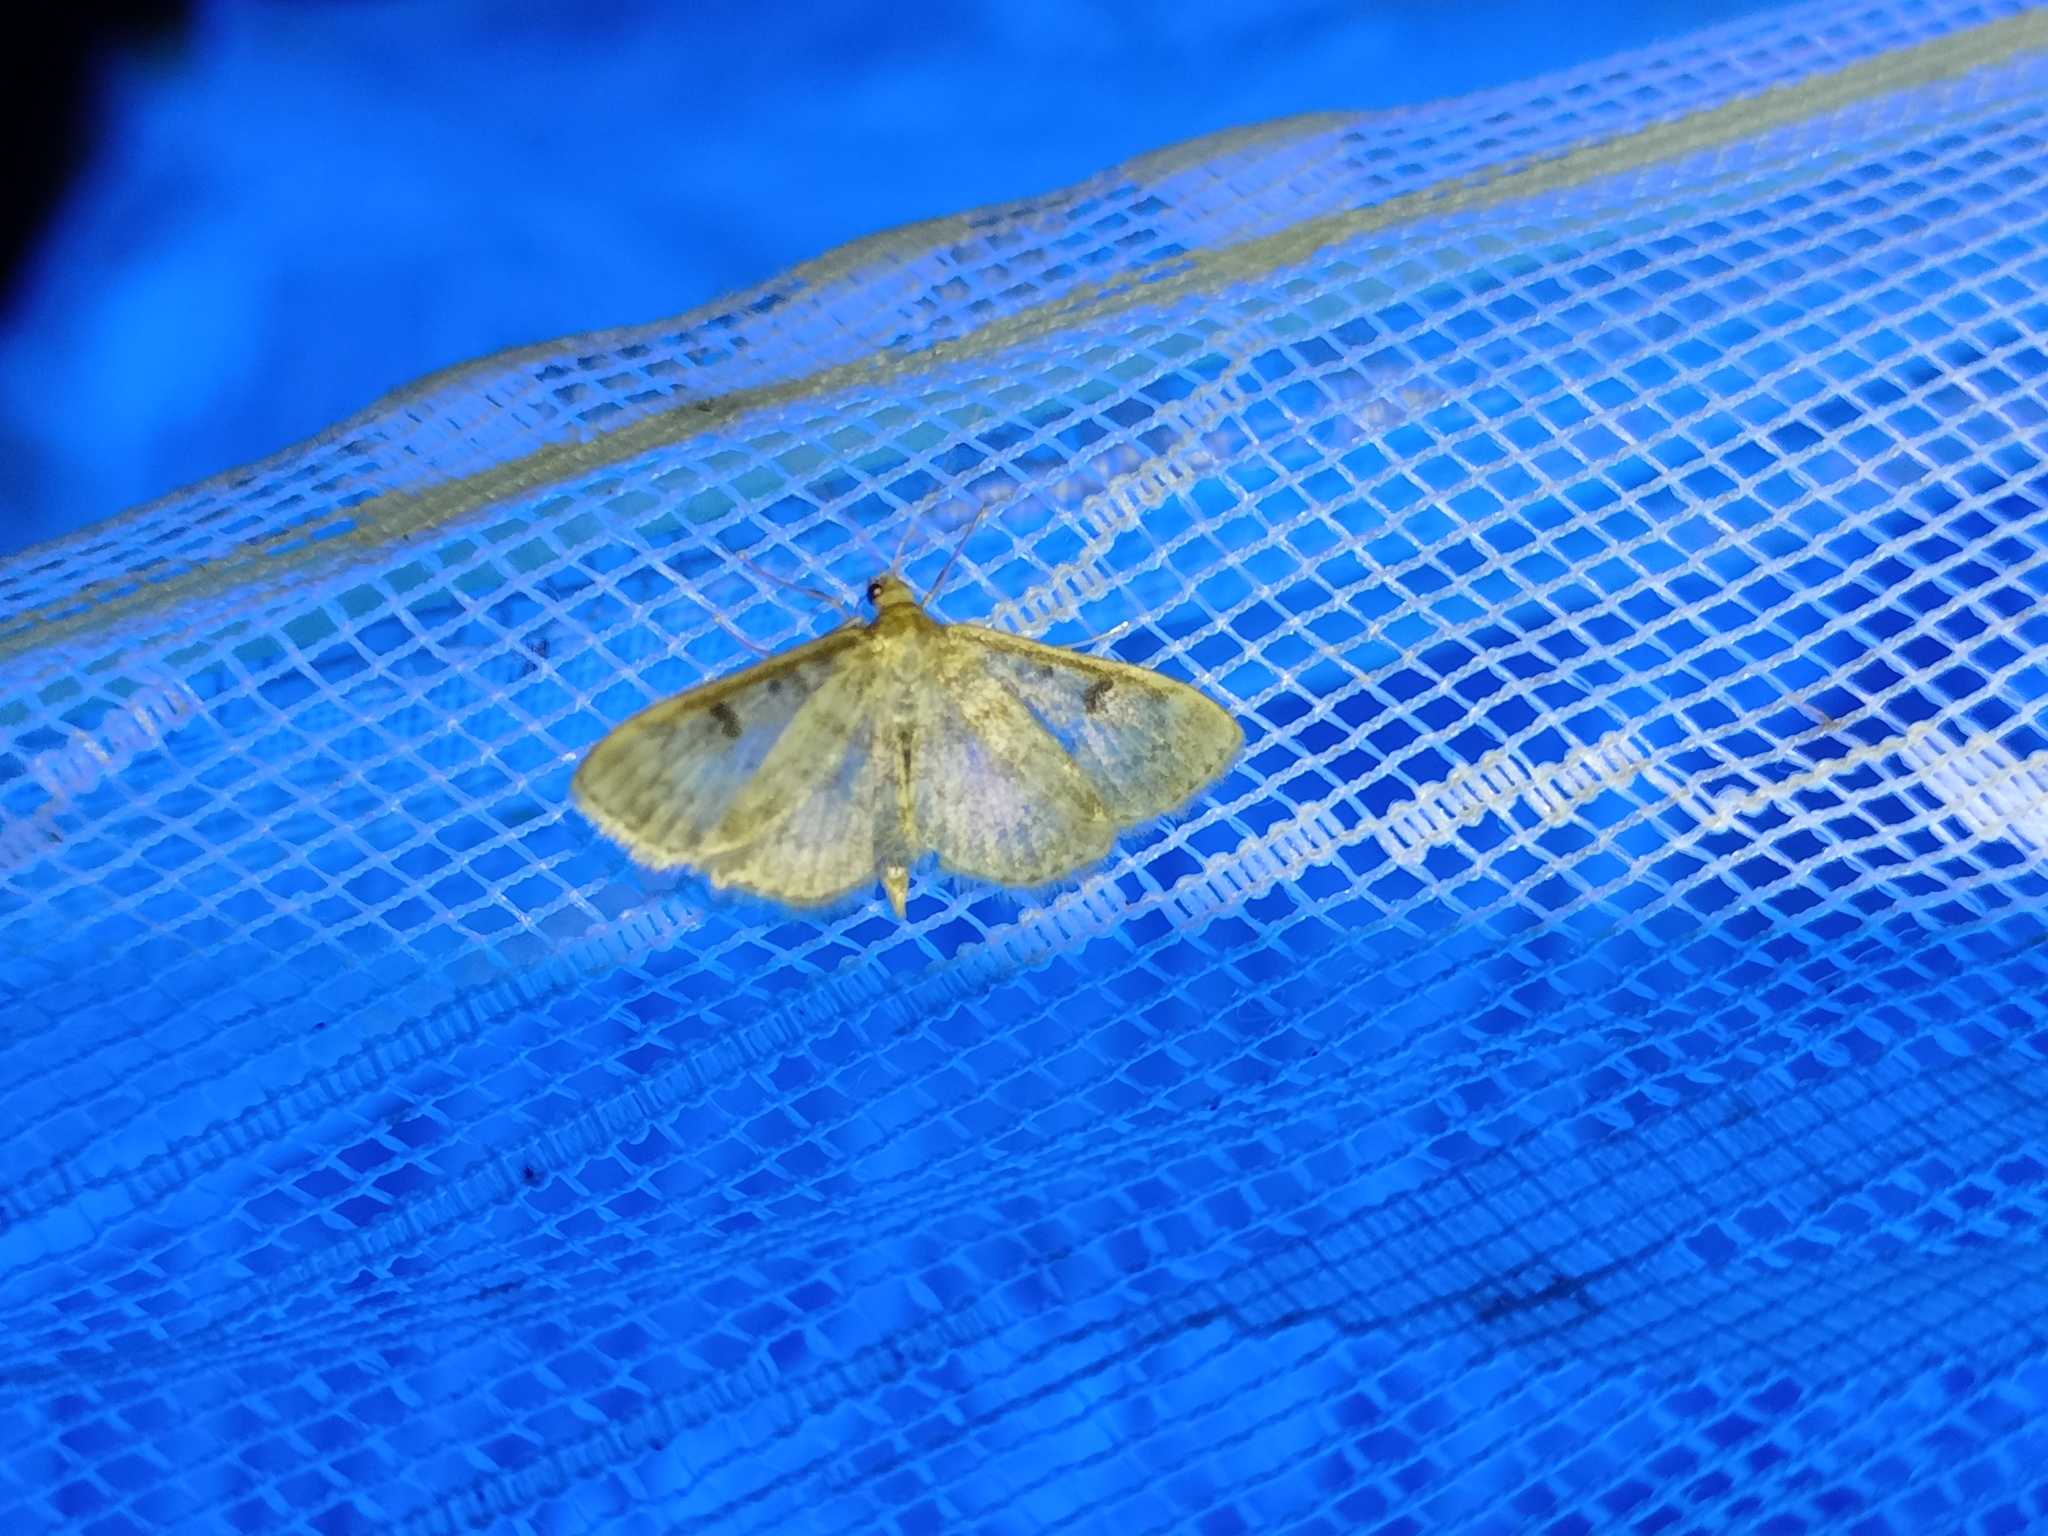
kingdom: Animalia
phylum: Arthropoda
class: Insecta
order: Lepidoptera
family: Crambidae
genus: Anania
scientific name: Anania perlucidalis
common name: Fenland pearl
